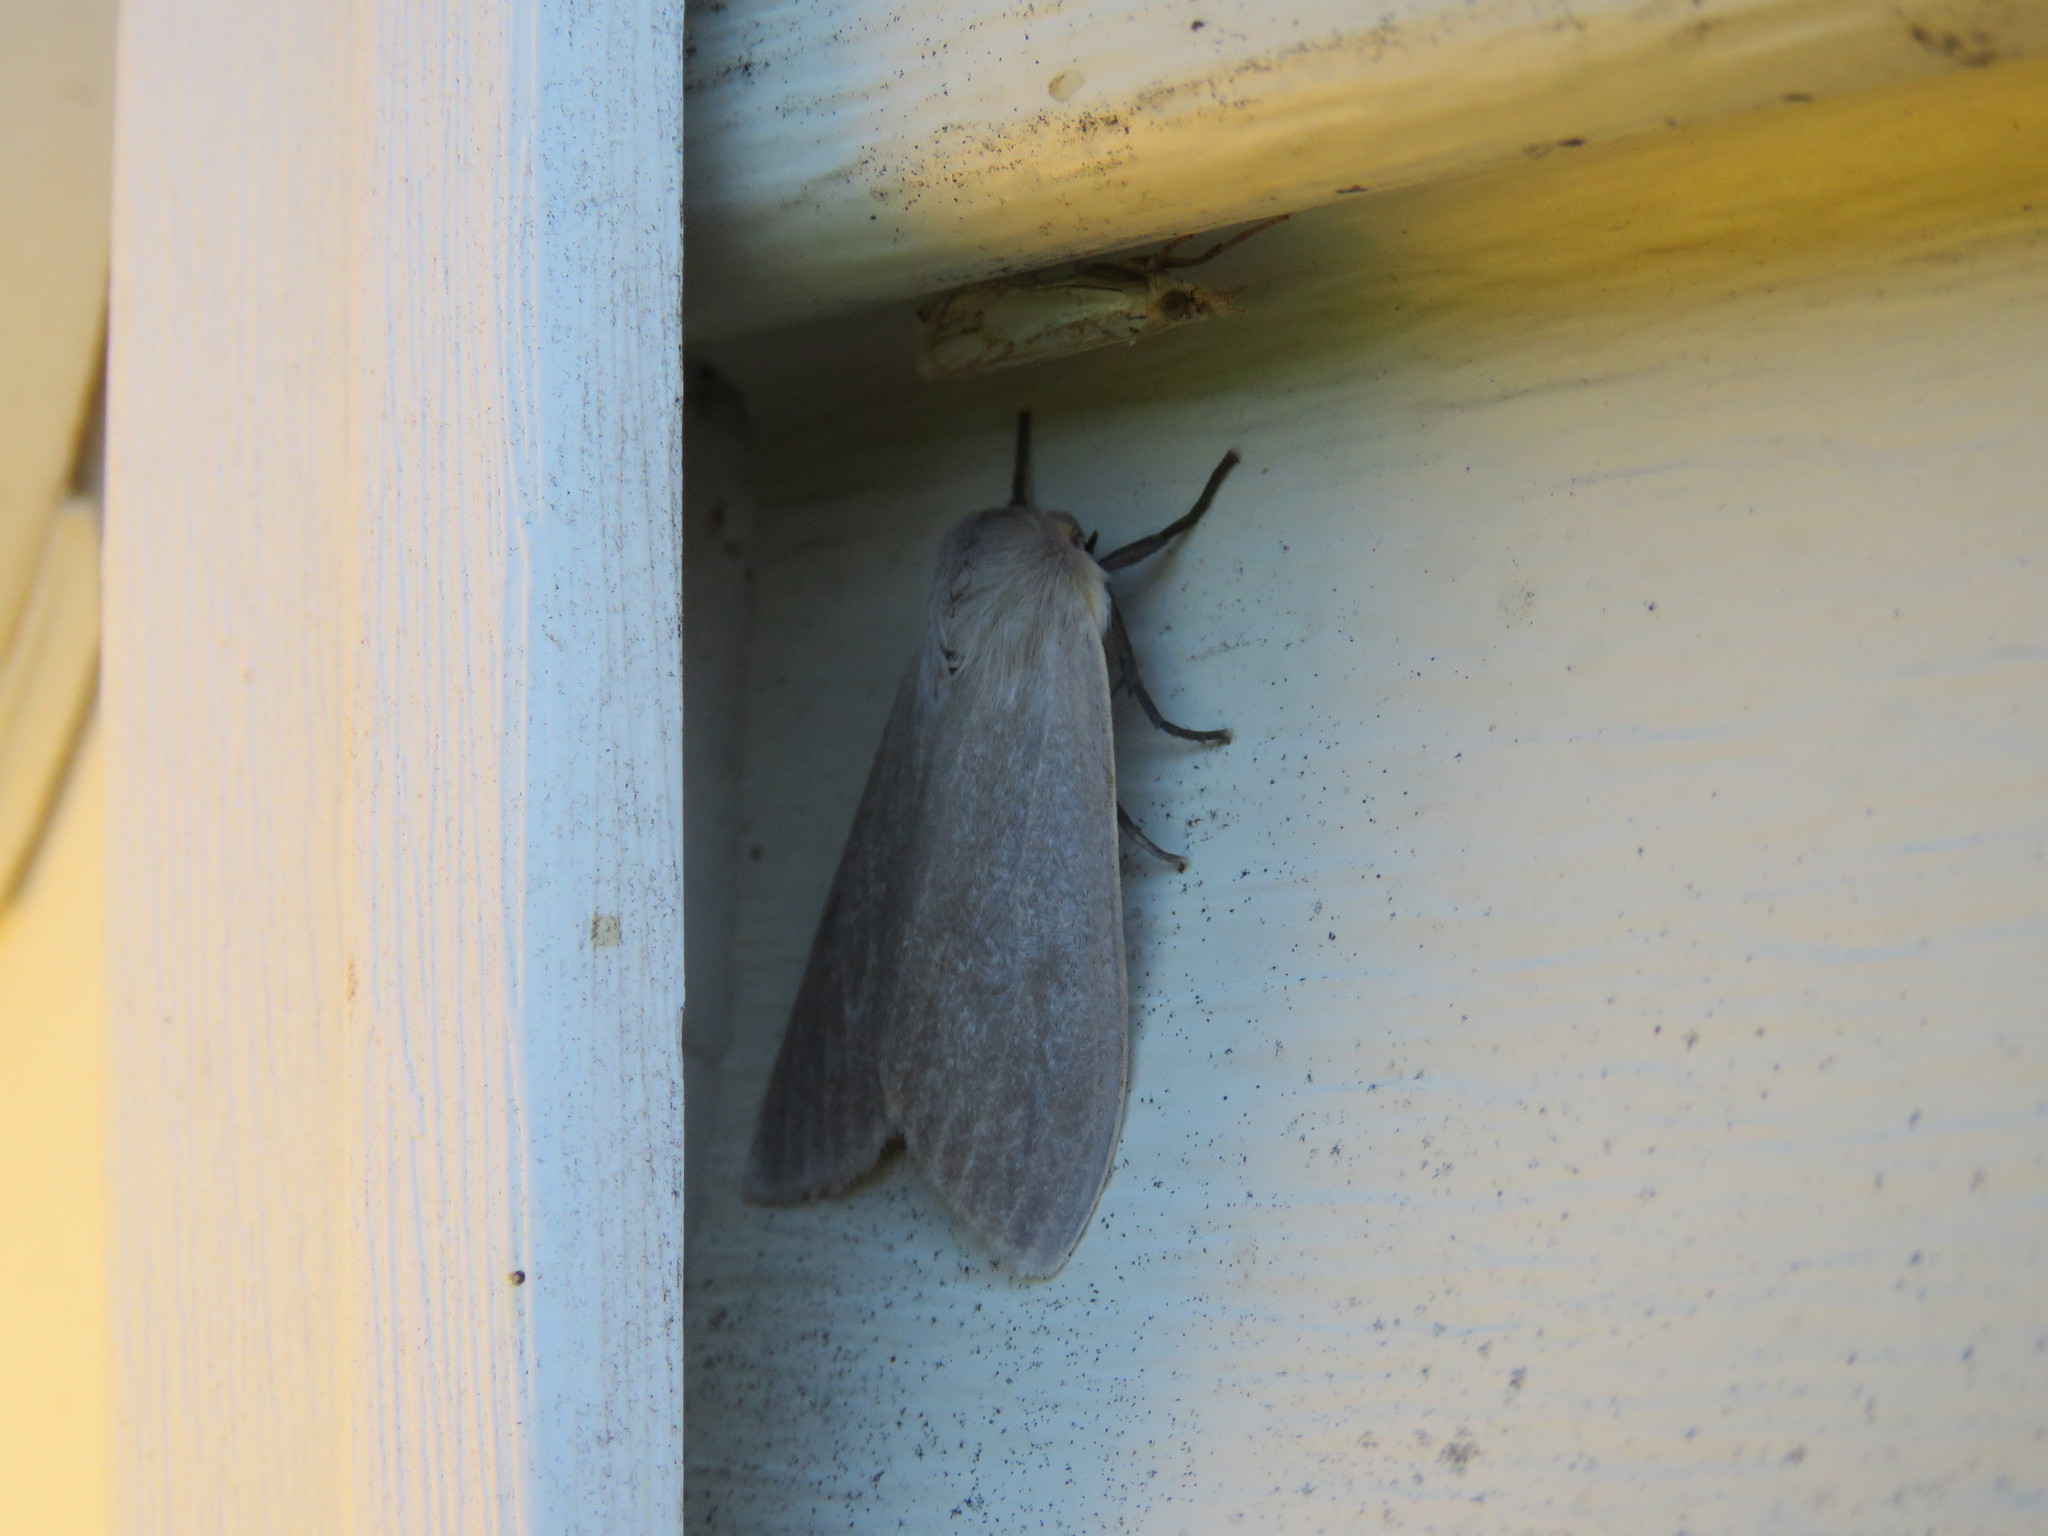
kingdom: Animalia
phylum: Arthropoda
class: Insecta
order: Lepidoptera
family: Erebidae
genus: Euchaetes
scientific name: Euchaetes egle
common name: Milkweed tussock moth
